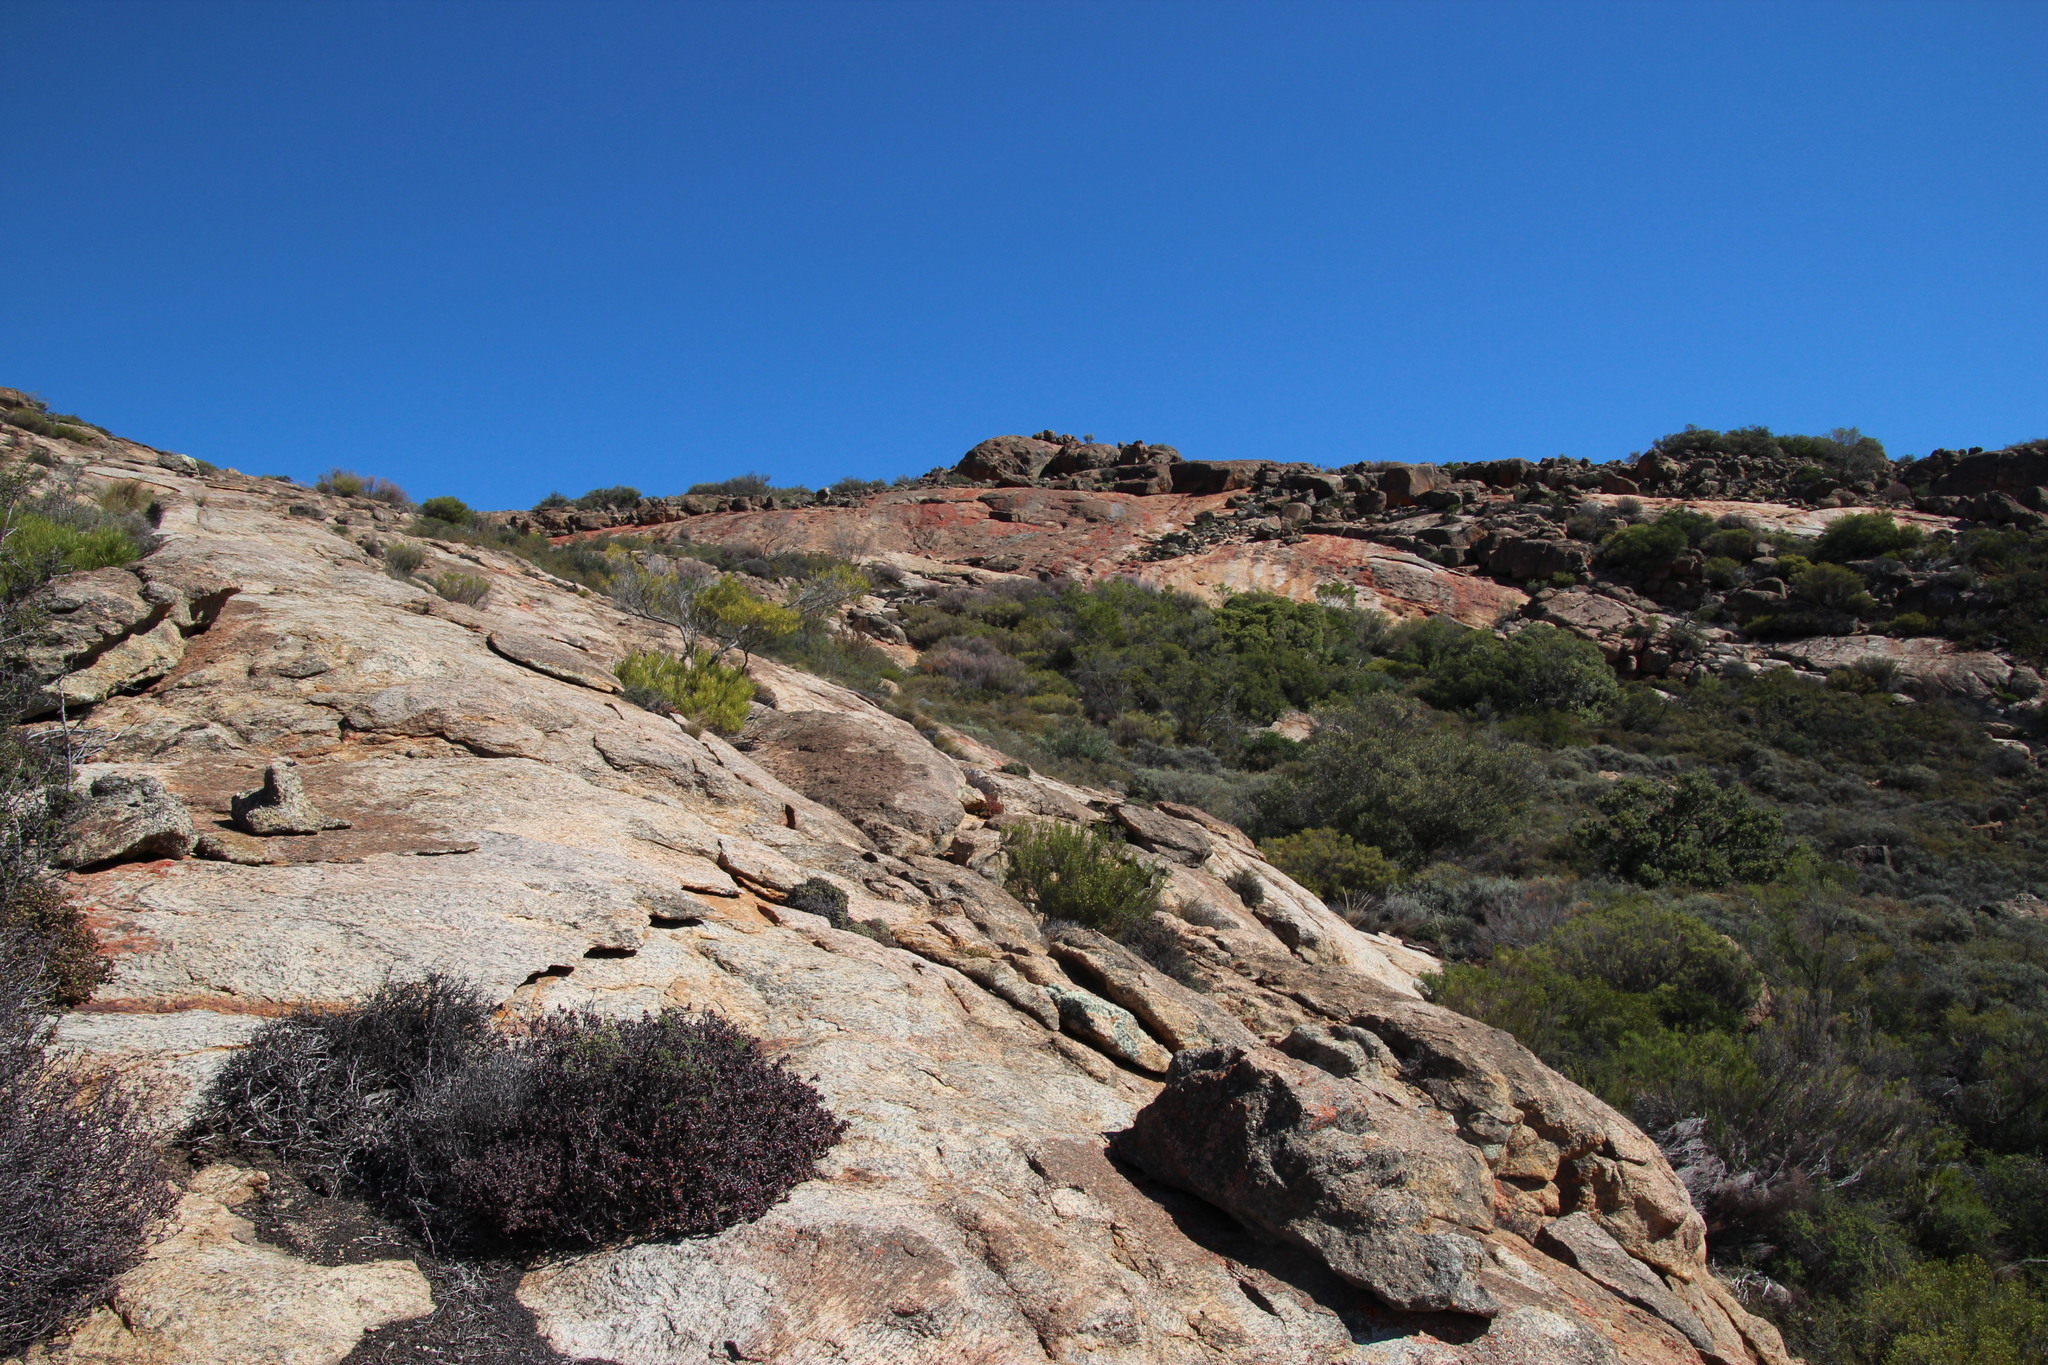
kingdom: Plantae
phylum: Tracheophyta
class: Magnoliopsida
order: Sapindales
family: Sapindaceae
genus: Dodonaea
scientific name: Dodonaea viscosa
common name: Hopbush
